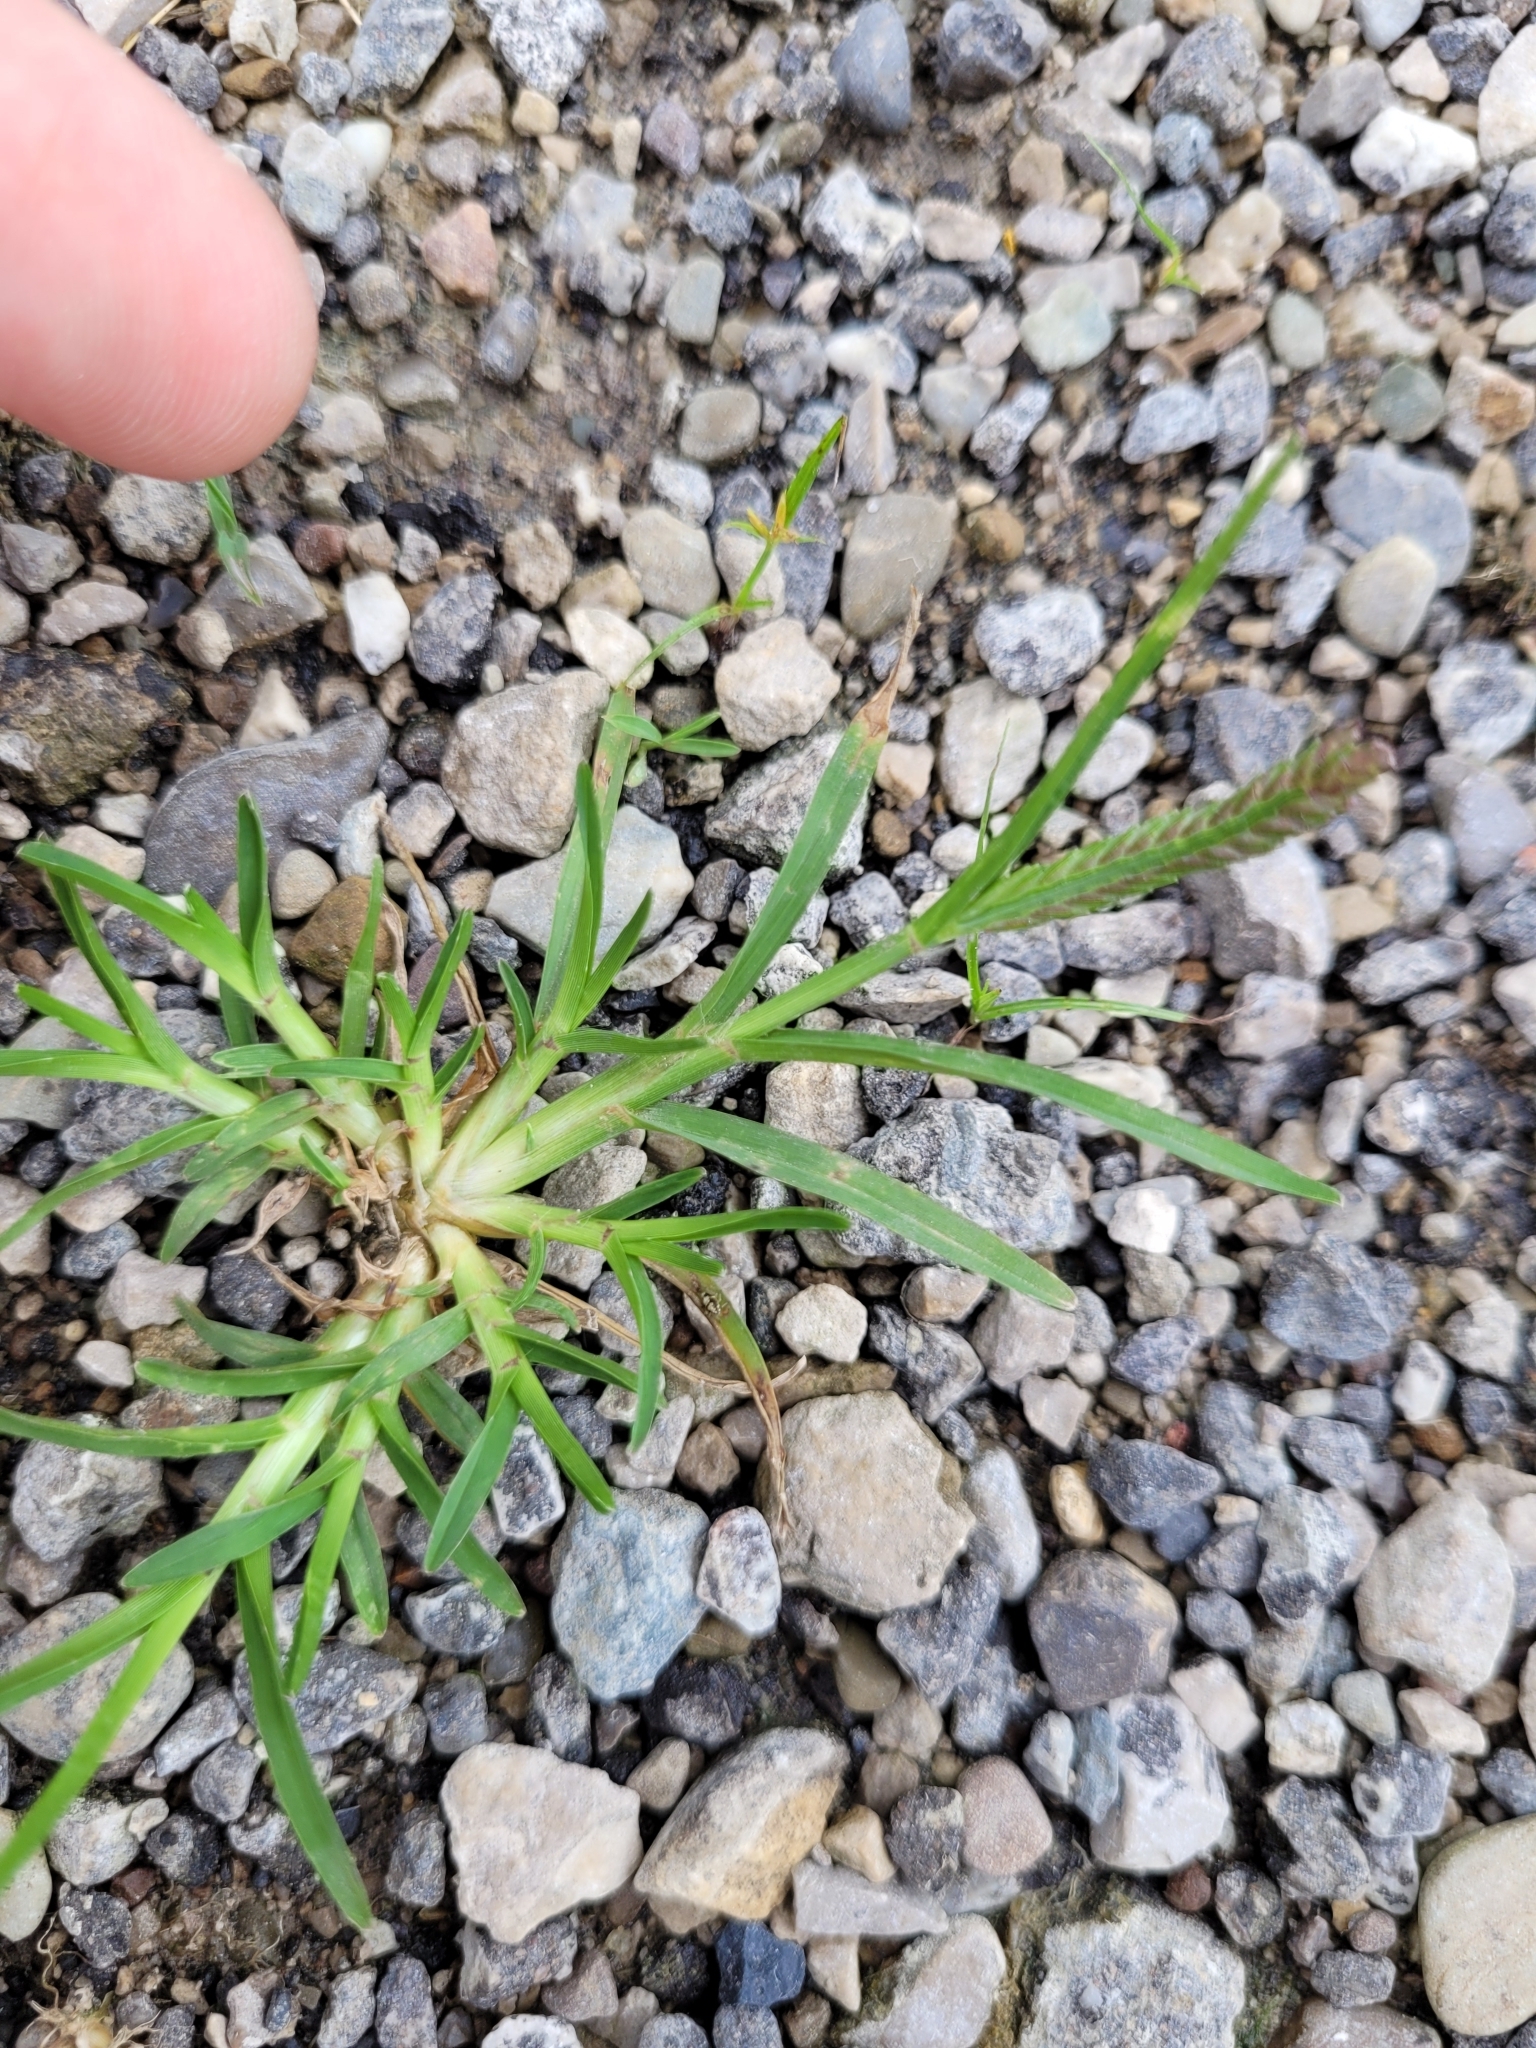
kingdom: Plantae
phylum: Tracheophyta
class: Liliopsida
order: Poales
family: Poaceae
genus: Eleusine
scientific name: Eleusine indica
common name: Yard-grass
